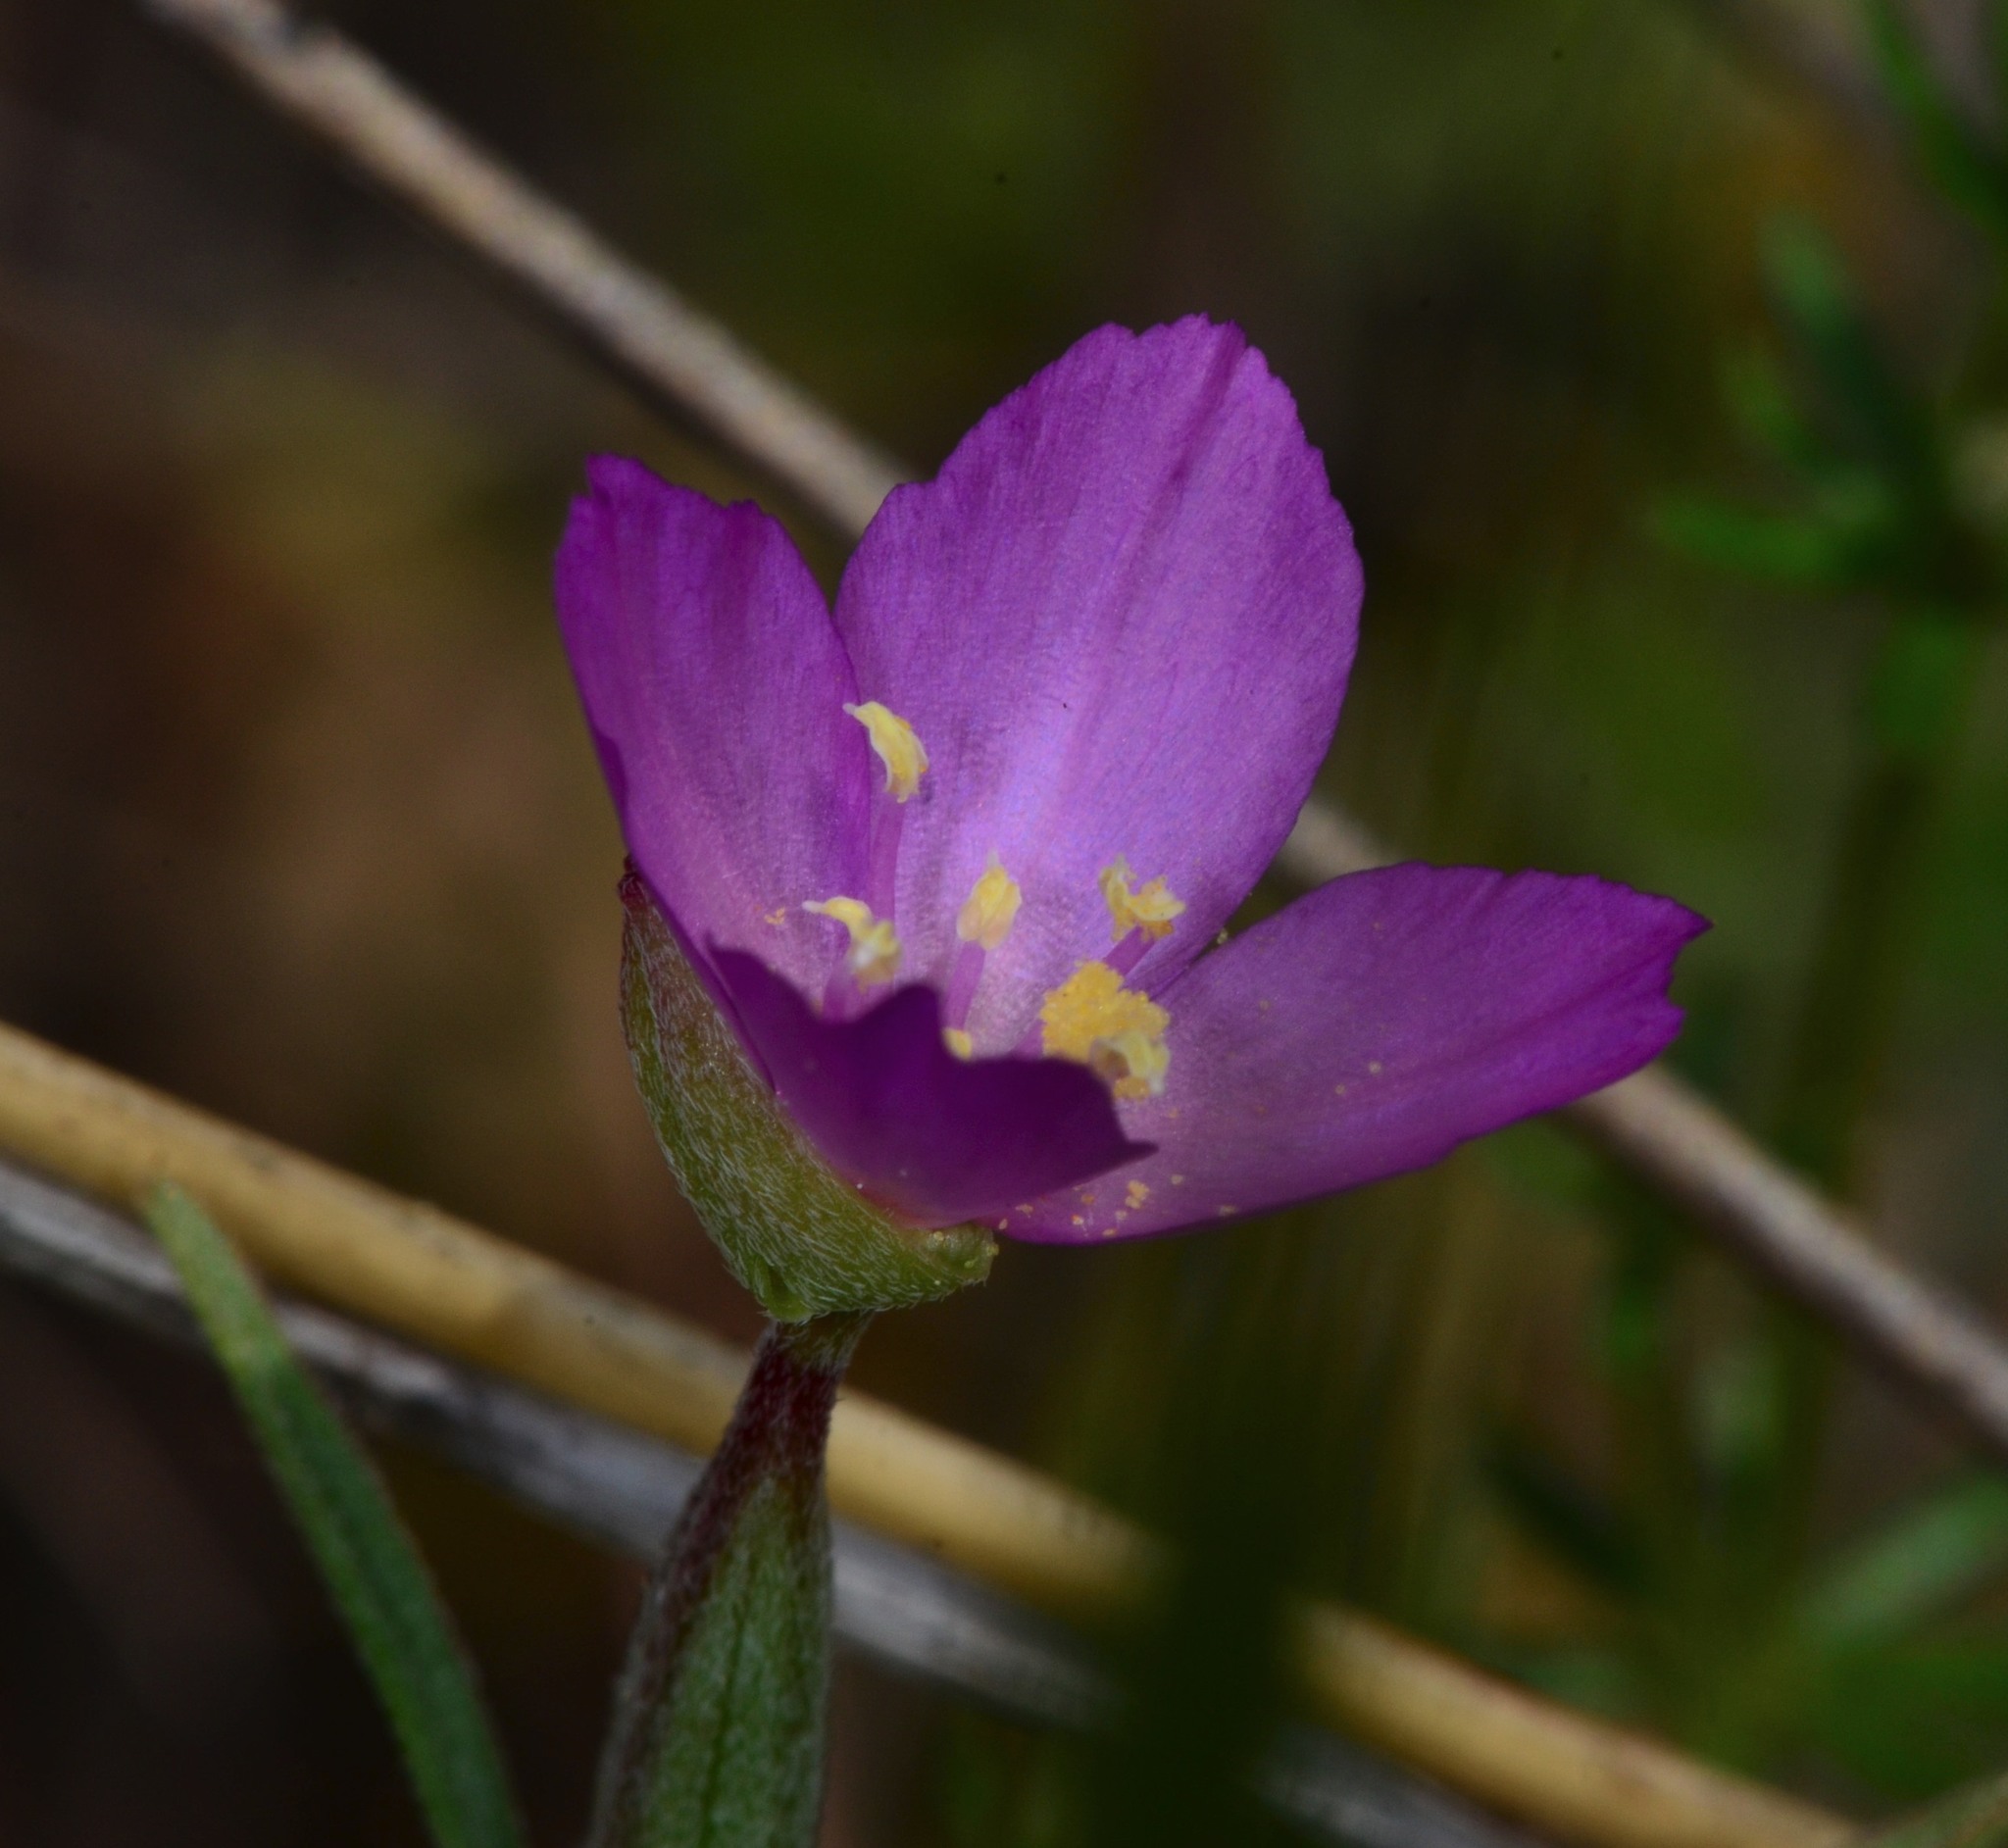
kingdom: Plantae
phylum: Tracheophyta
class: Magnoliopsida
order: Myrtales
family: Onagraceae
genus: Clarkia
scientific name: Clarkia purpurea
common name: Purple clarkia
